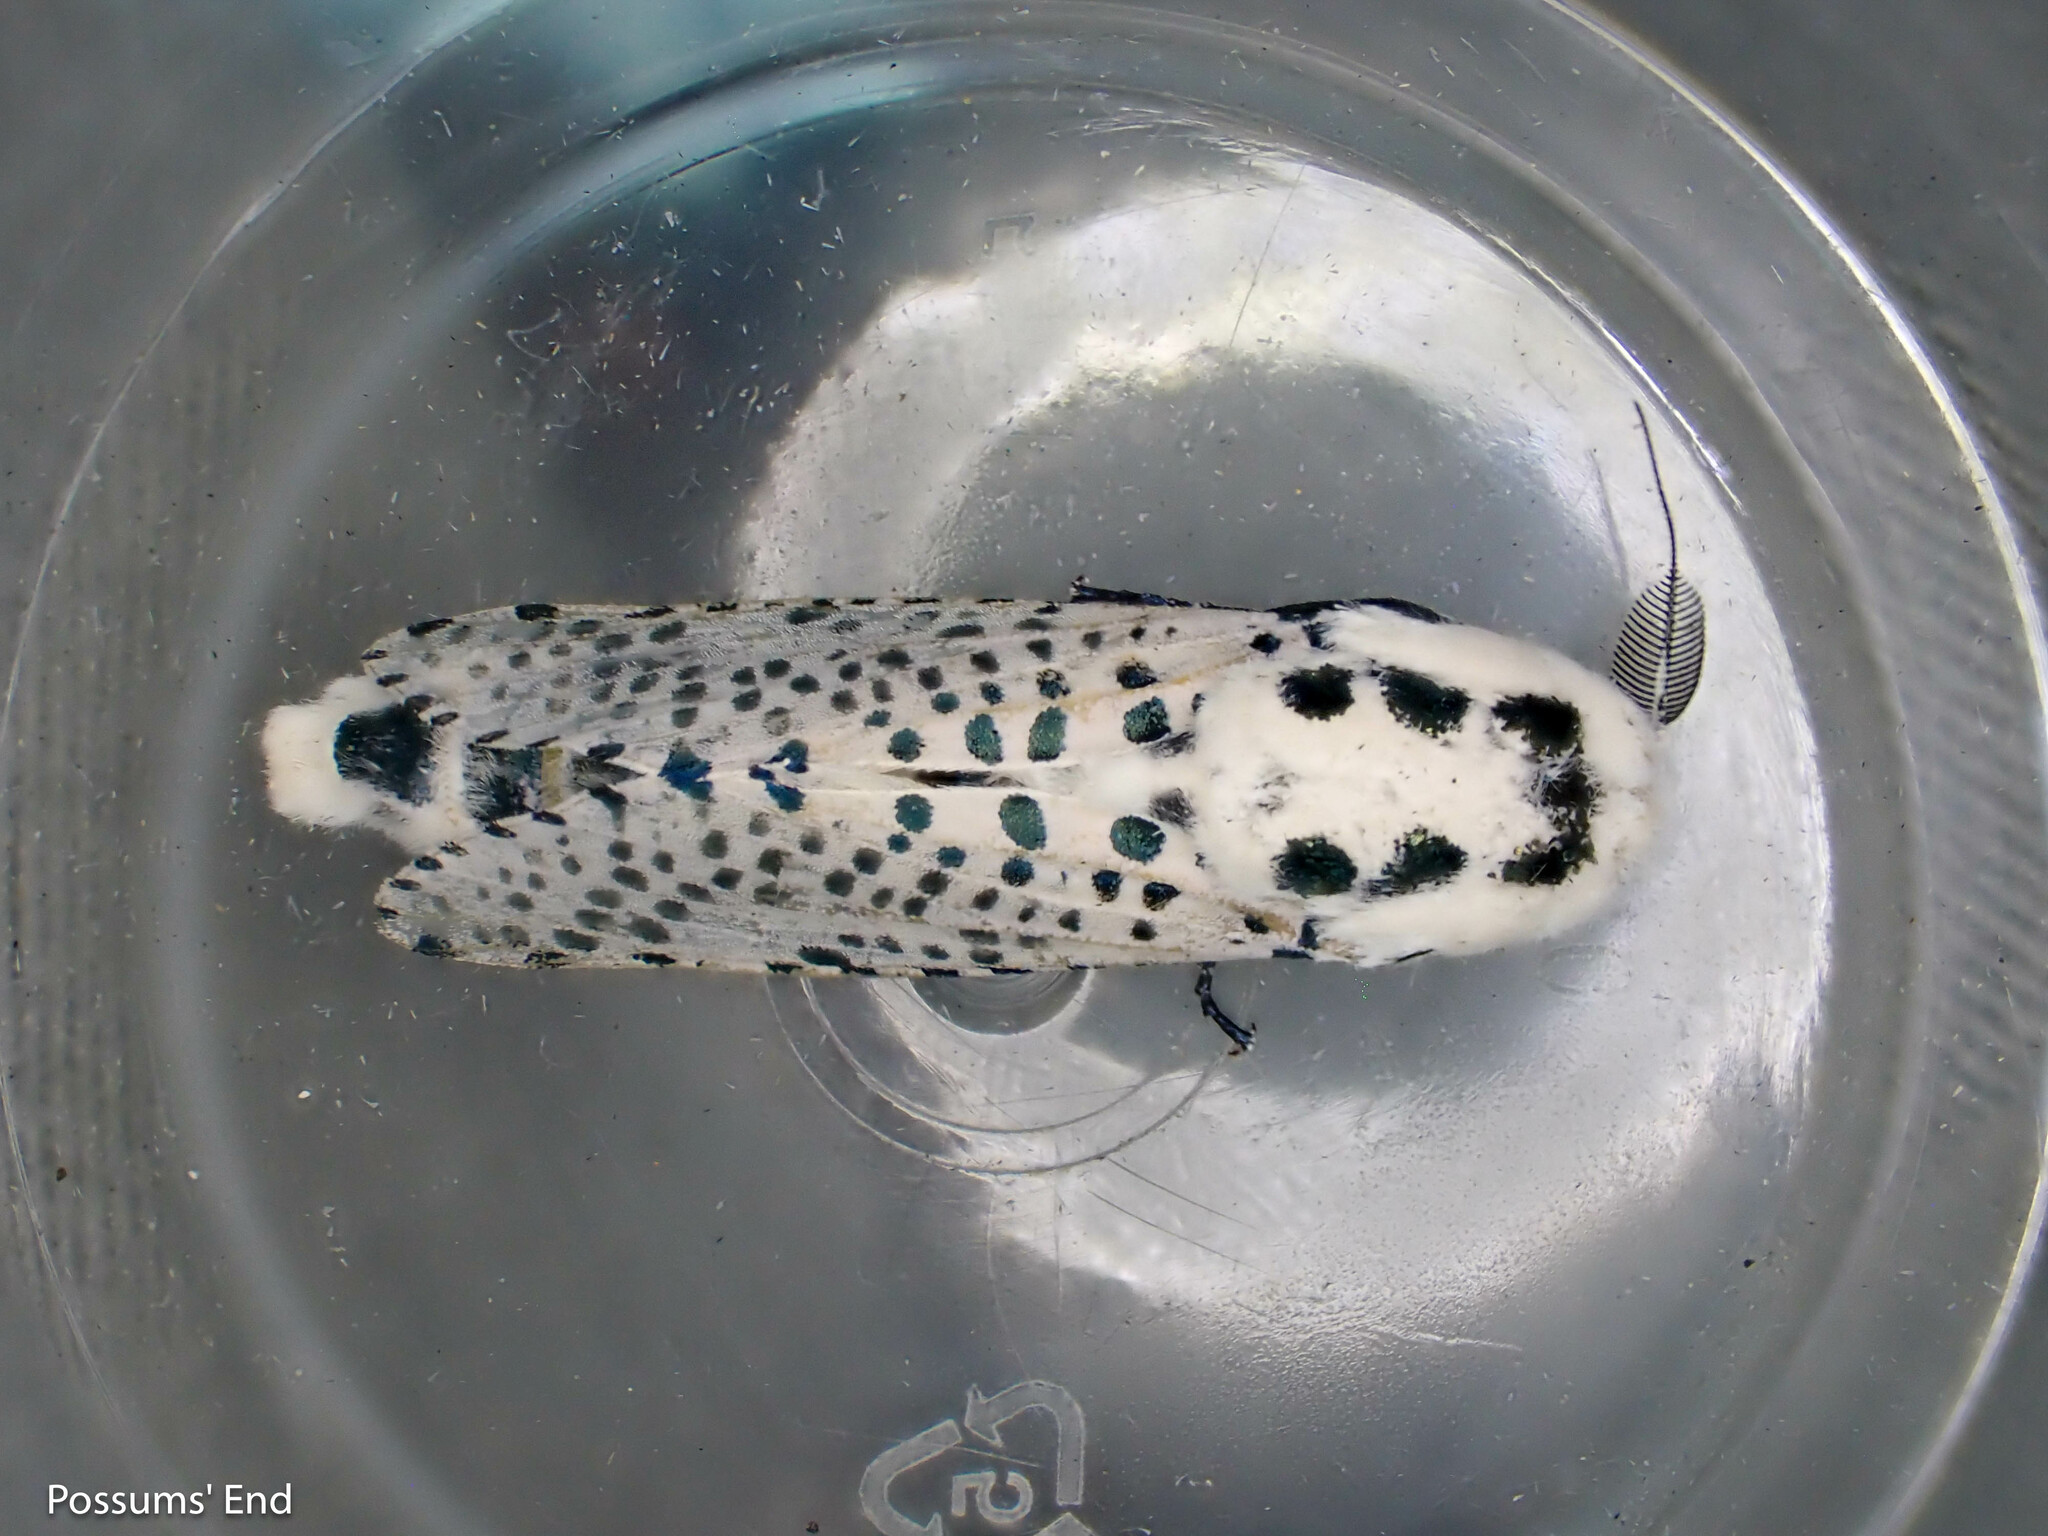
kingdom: Animalia
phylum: Arthropoda
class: Insecta
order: Lepidoptera
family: Cossidae
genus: Zeuzera
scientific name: Zeuzera pyrina
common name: Leopard moth
